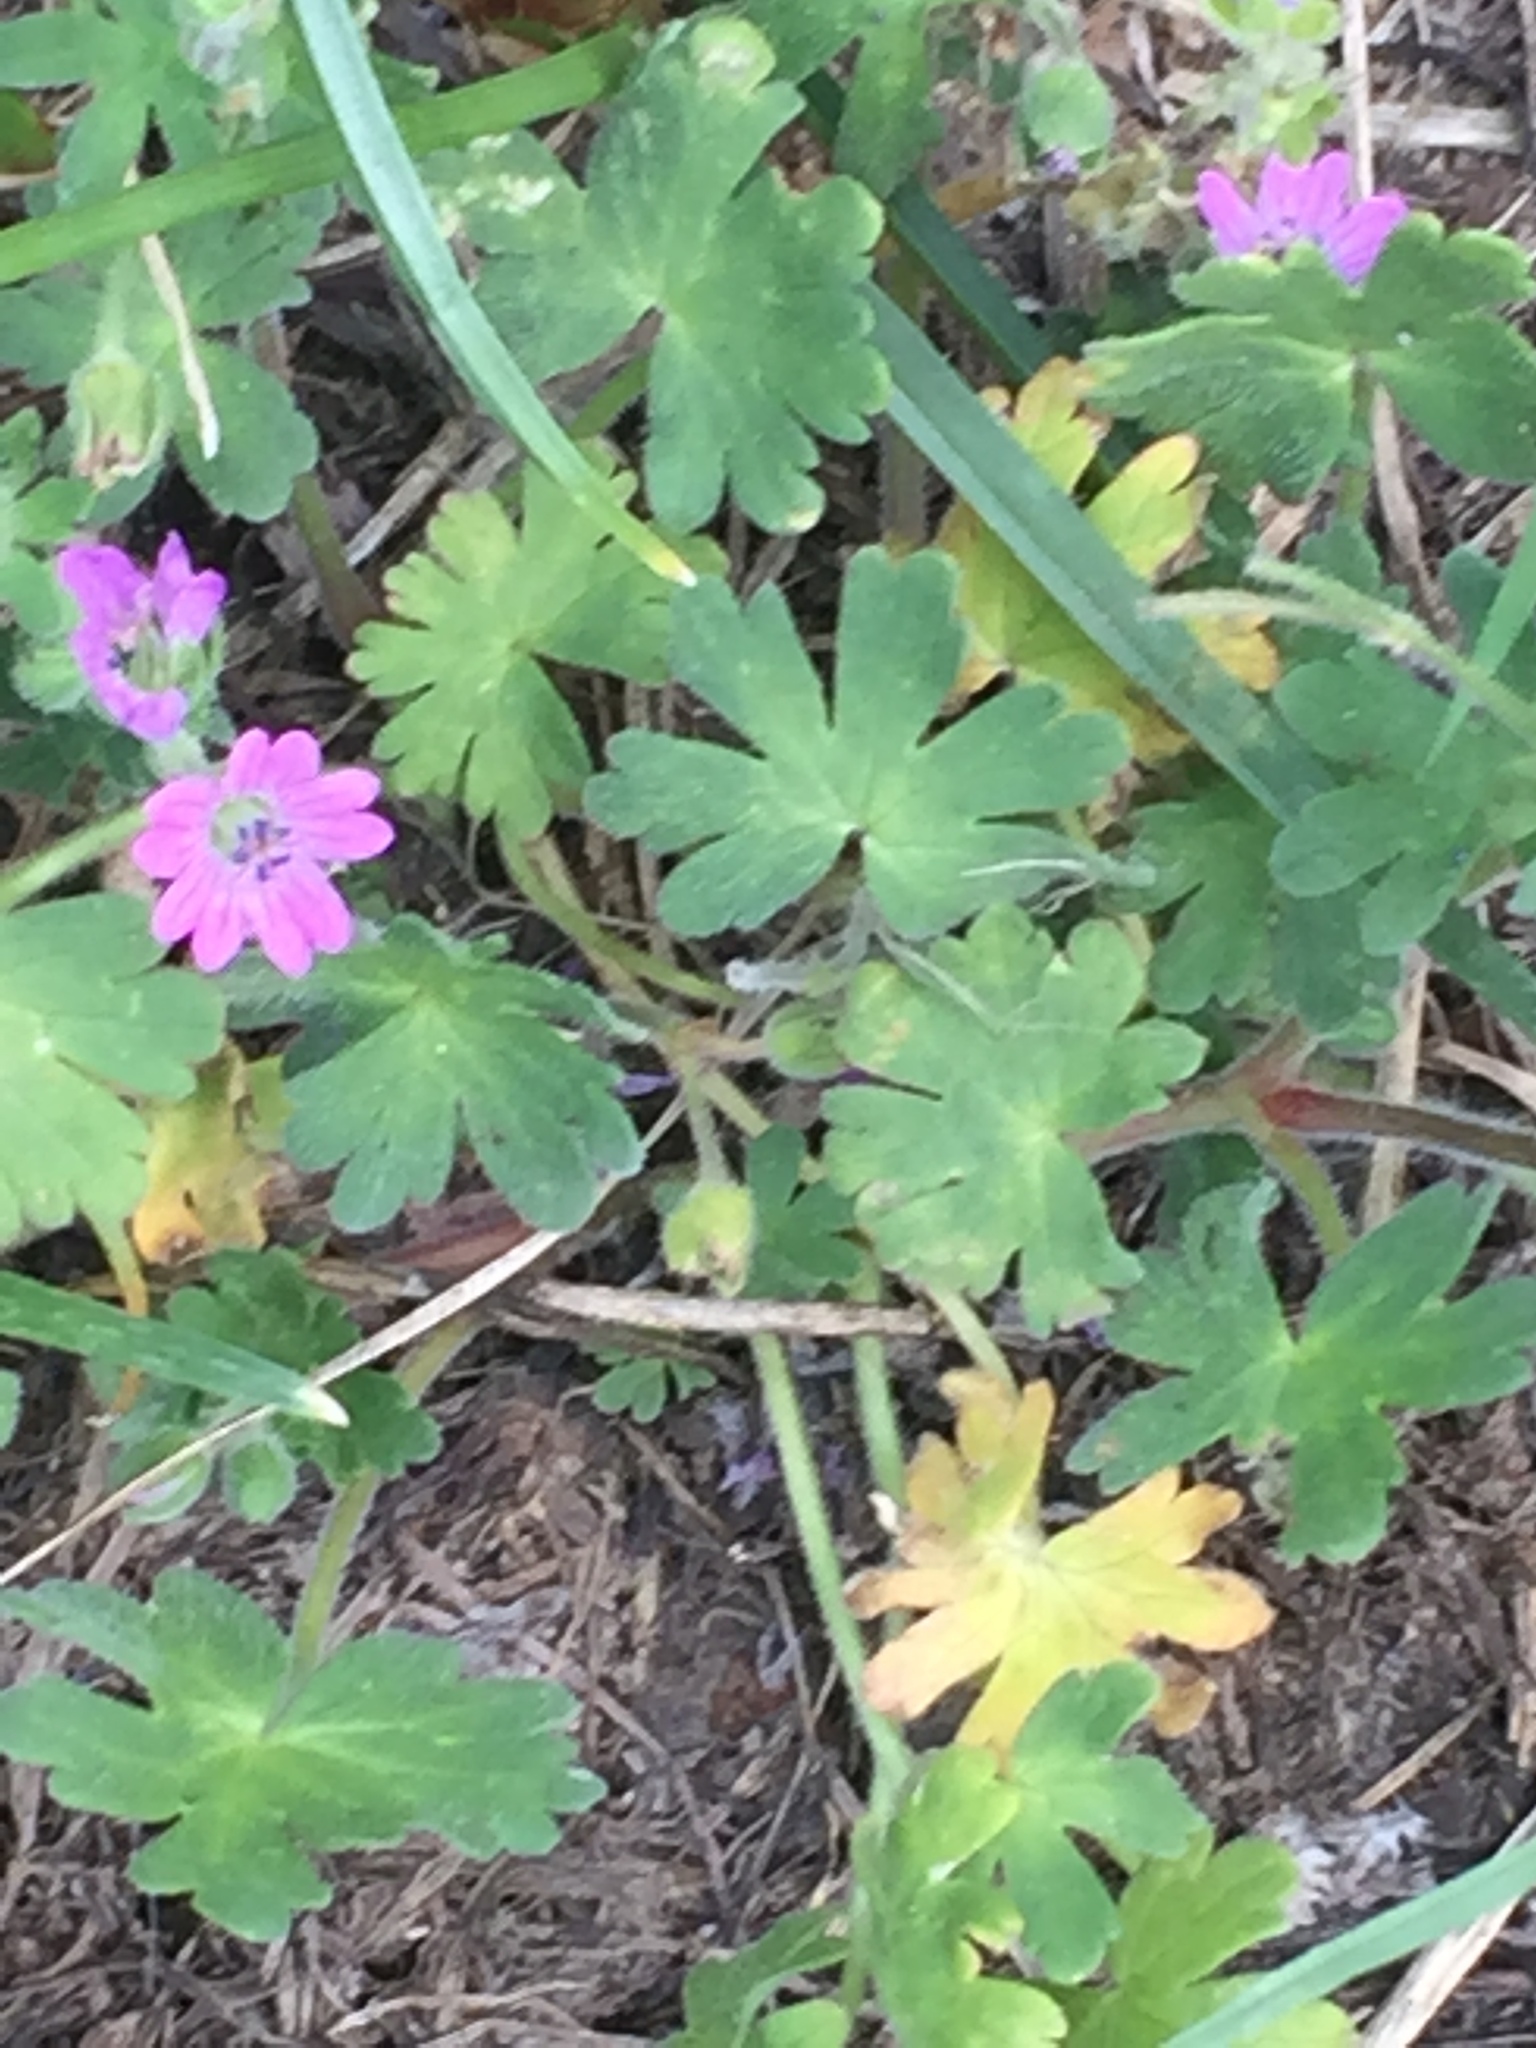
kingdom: Plantae
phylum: Tracheophyta
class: Magnoliopsida
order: Geraniales
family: Geraniaceae
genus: Geranium
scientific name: Geranium molle
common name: Dove's-foot crane's-bill
